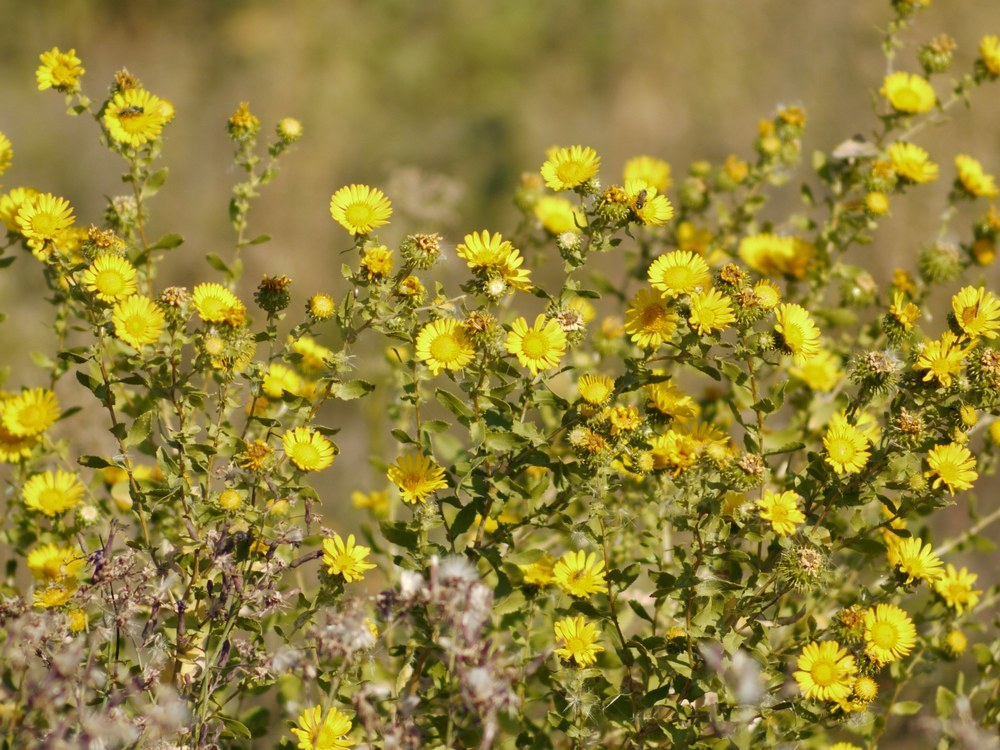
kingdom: Plantae
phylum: Tracheophyta
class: Magnoliopsida
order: Asterales
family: Asteraceae
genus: Grindelia
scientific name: Grindelia squarrosa
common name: Curly-cup gumweed
